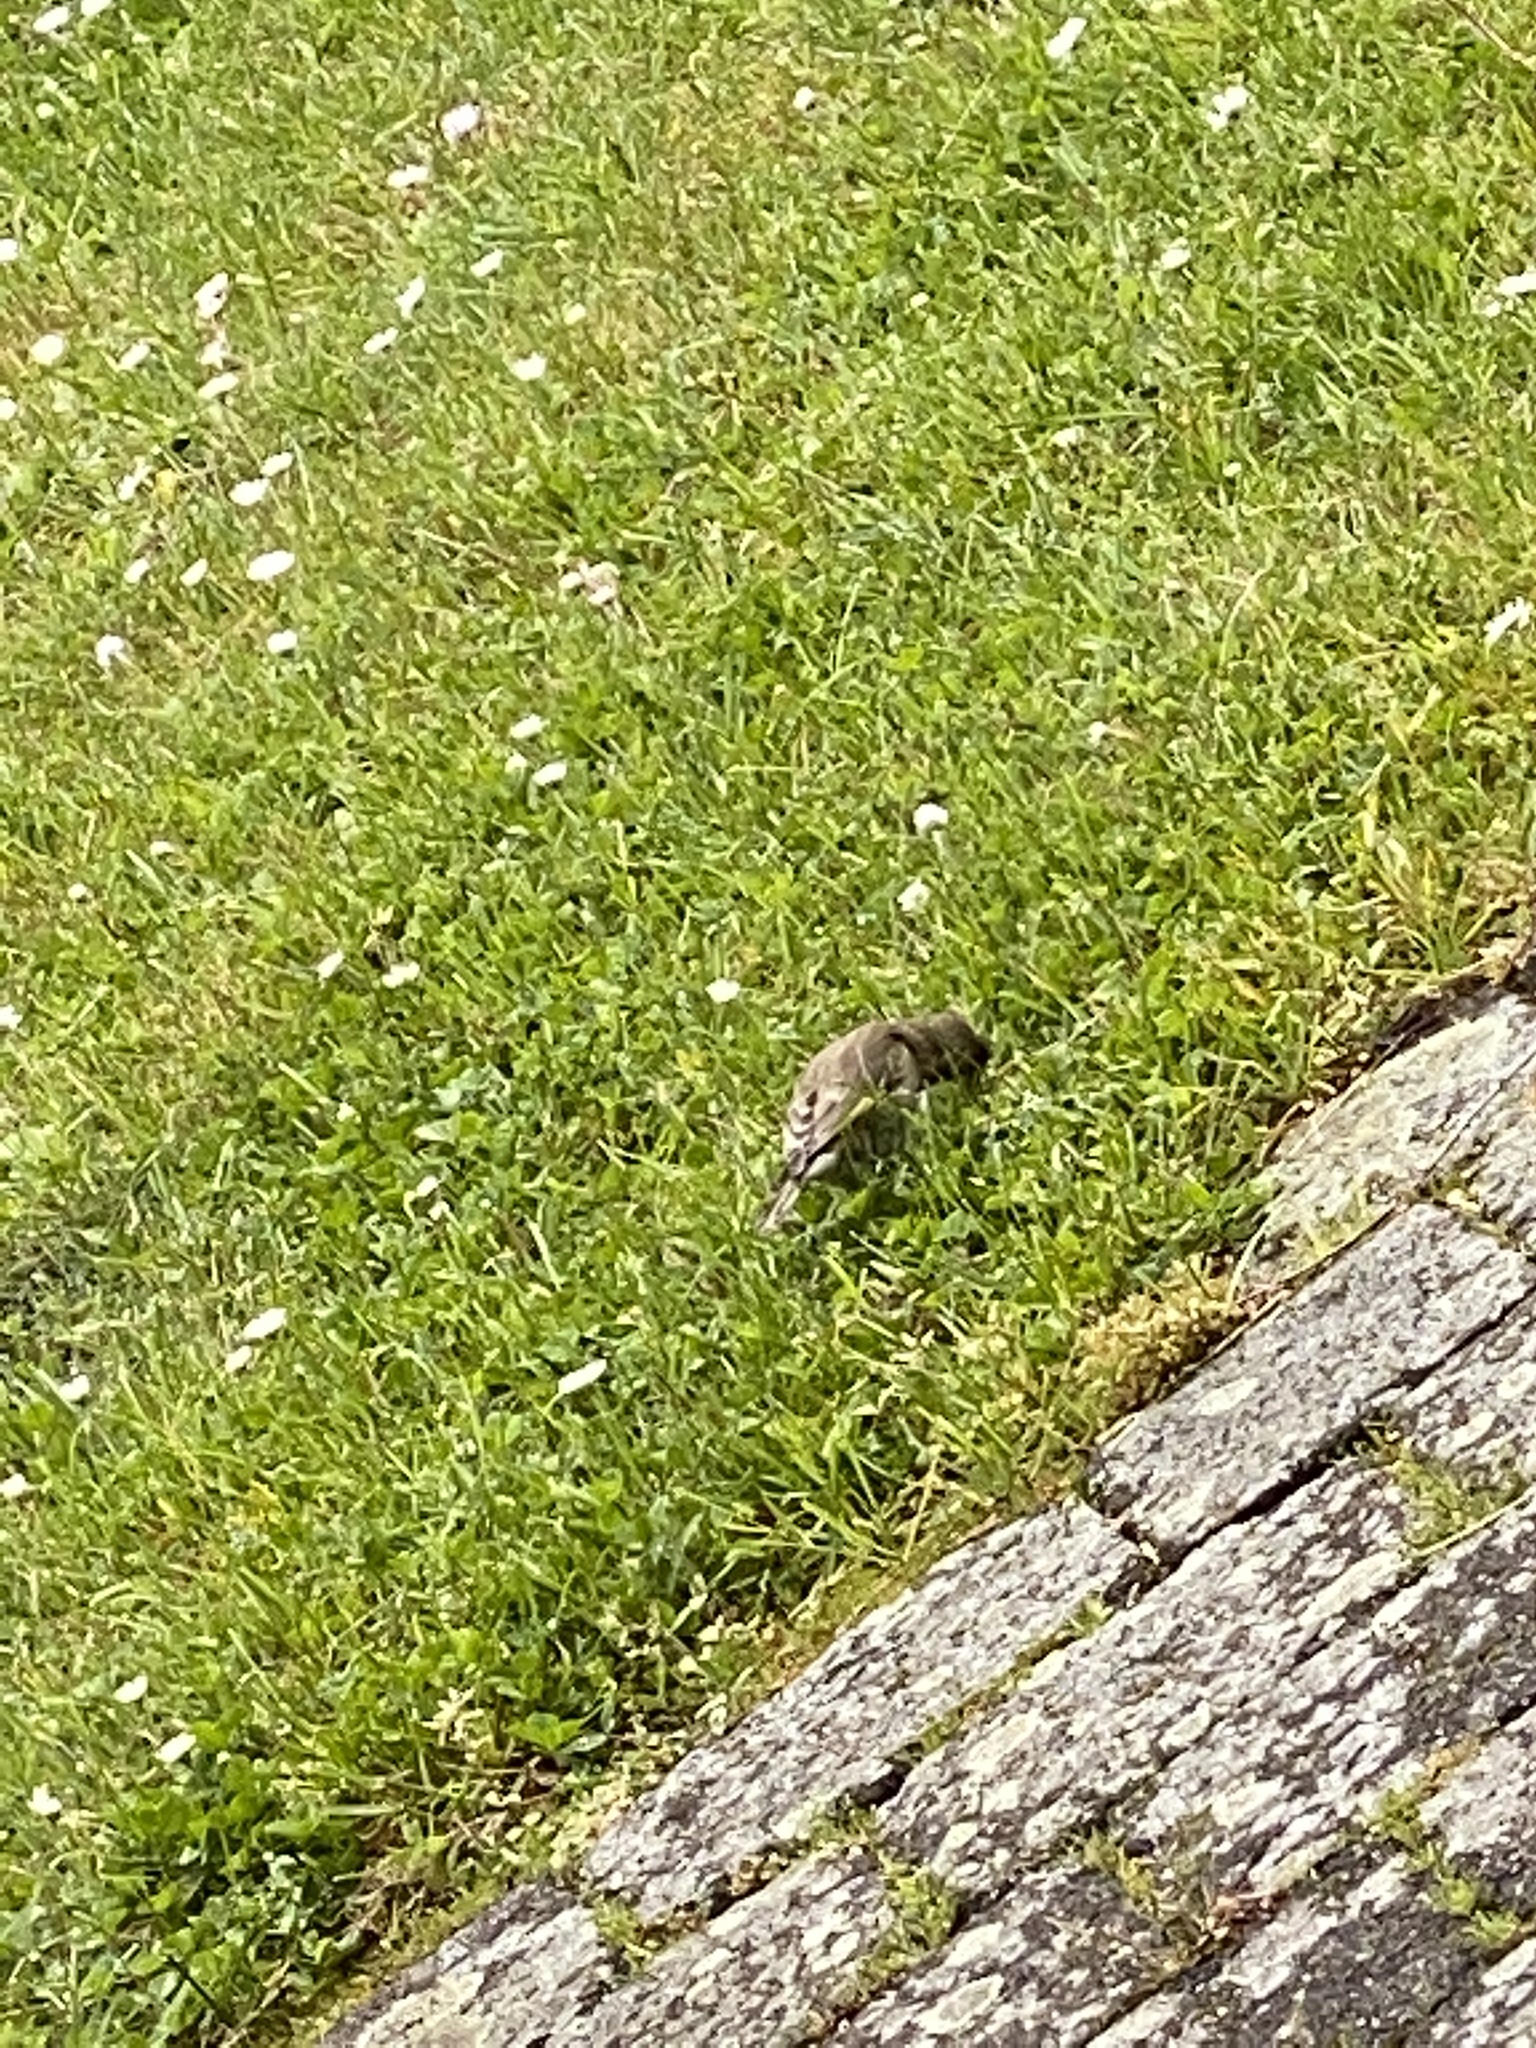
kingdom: Plantae
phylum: Tracheophyta
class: Liliopsida
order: Poales
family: Poaceae
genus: Chloris
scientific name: Chloris chloris
